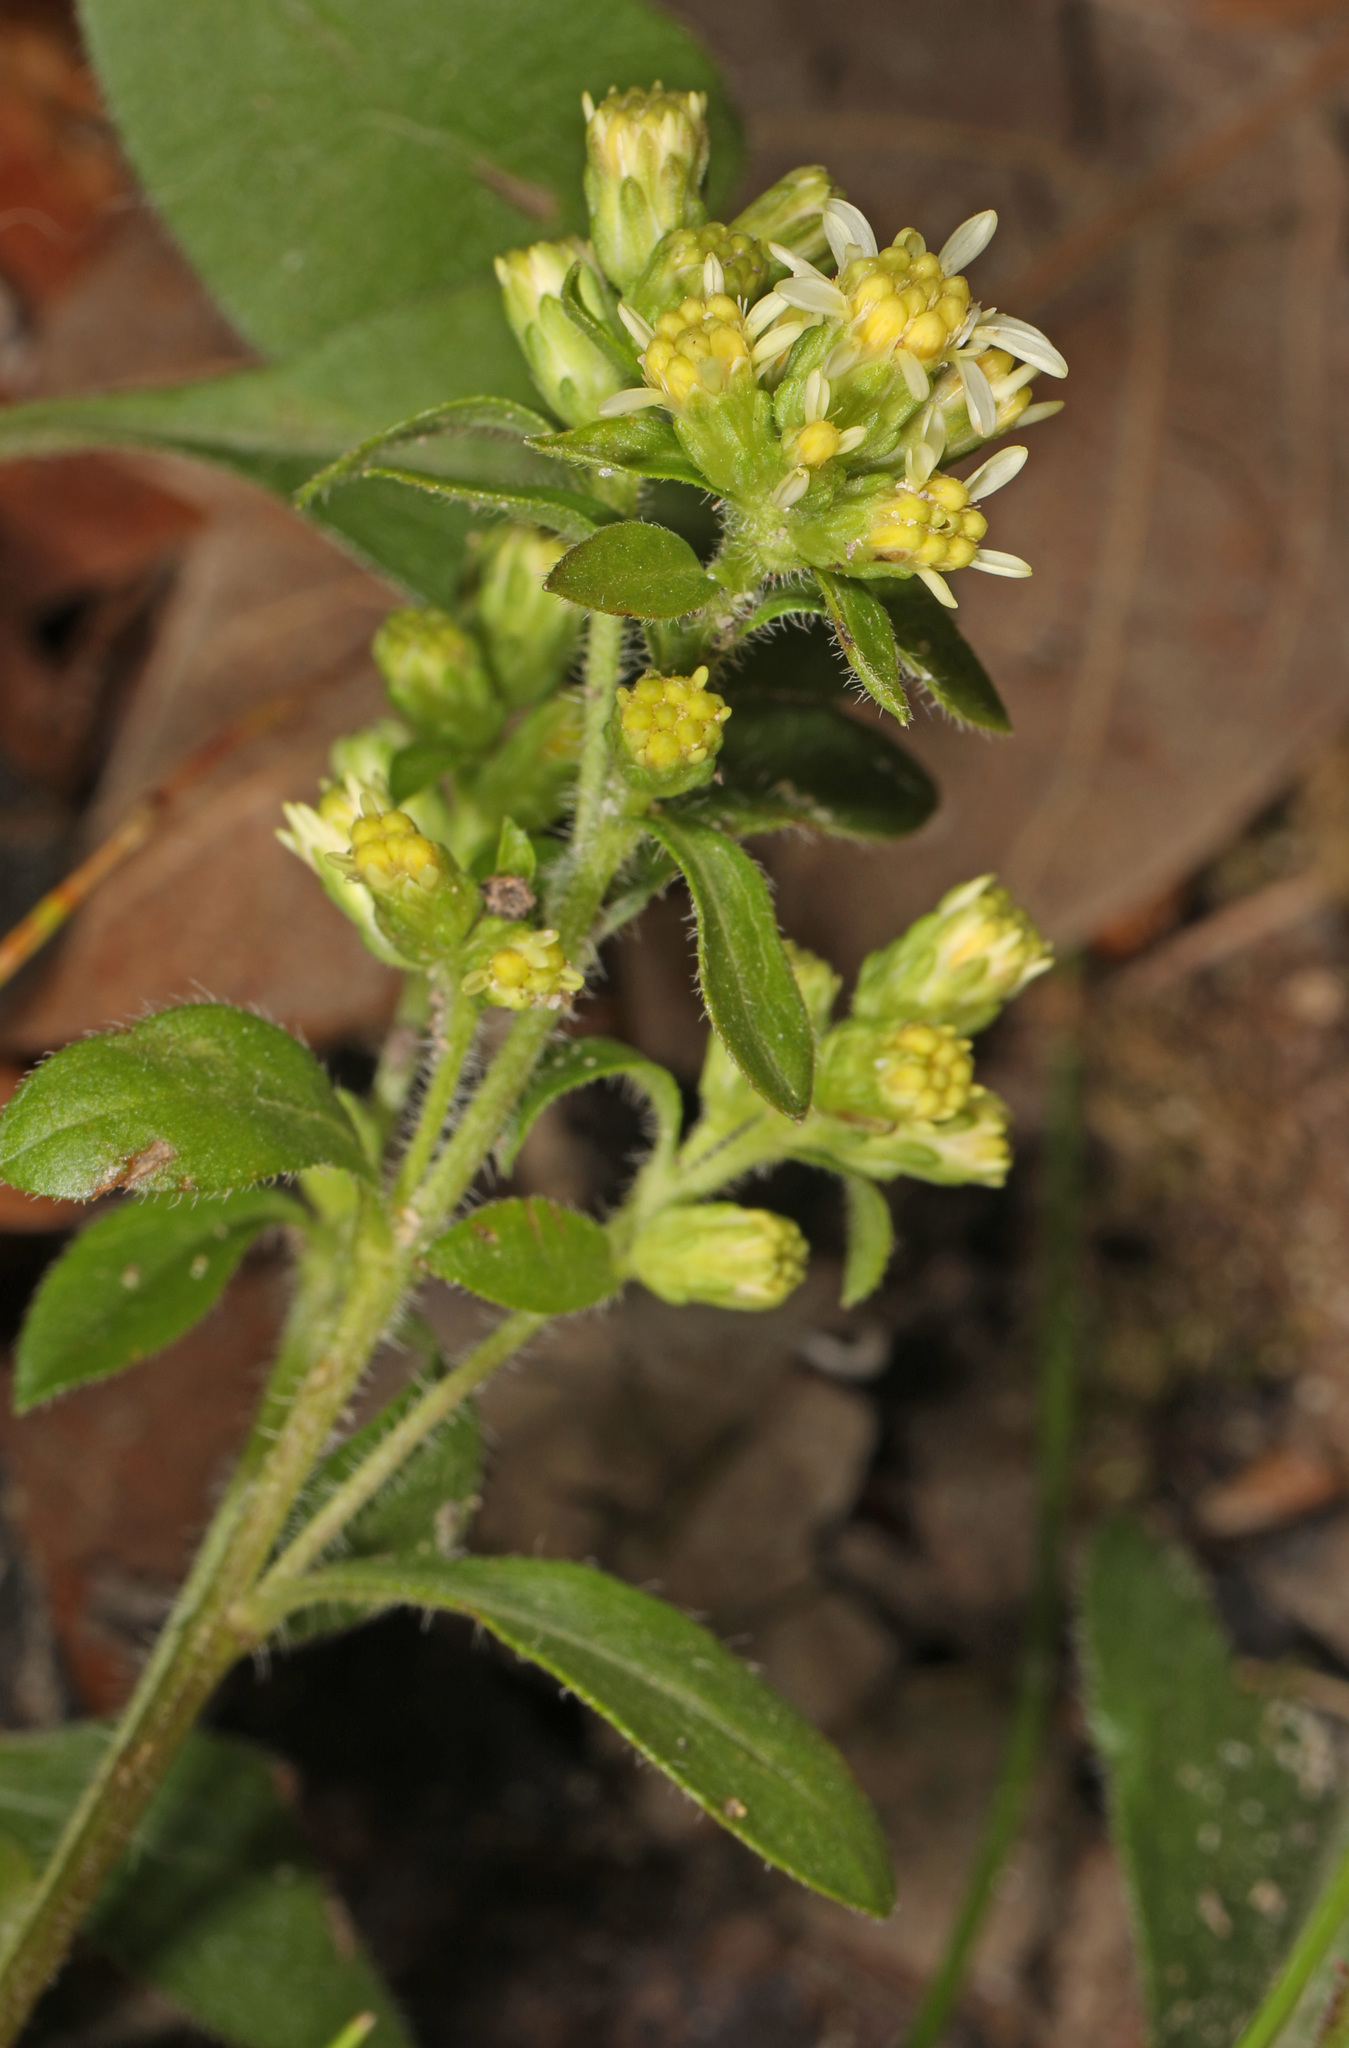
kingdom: Plantae
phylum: Tracheophyta
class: Magnoliopsida
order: Asterales
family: Asteraceae
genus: Solidago
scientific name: Solidago bicolor
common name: Silverrod
